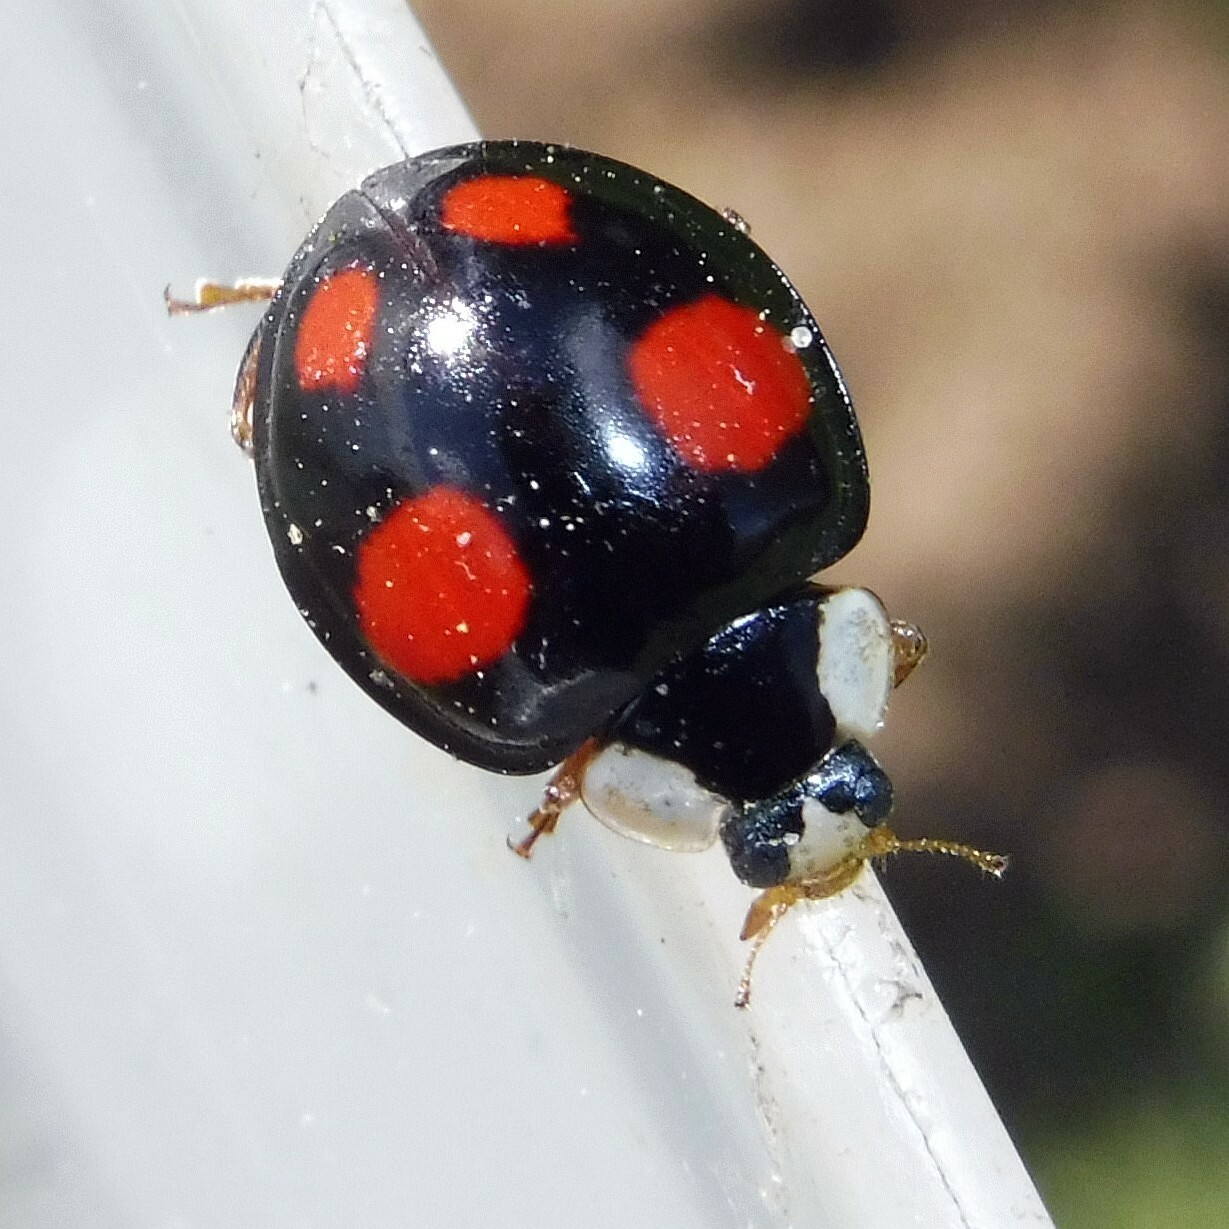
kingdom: Animalia
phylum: Arthropoda
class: Insecta
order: Coleoptera
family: Coccinellidae
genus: Harmonia
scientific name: Harmonia axyridis
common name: Harlequin ladybird
